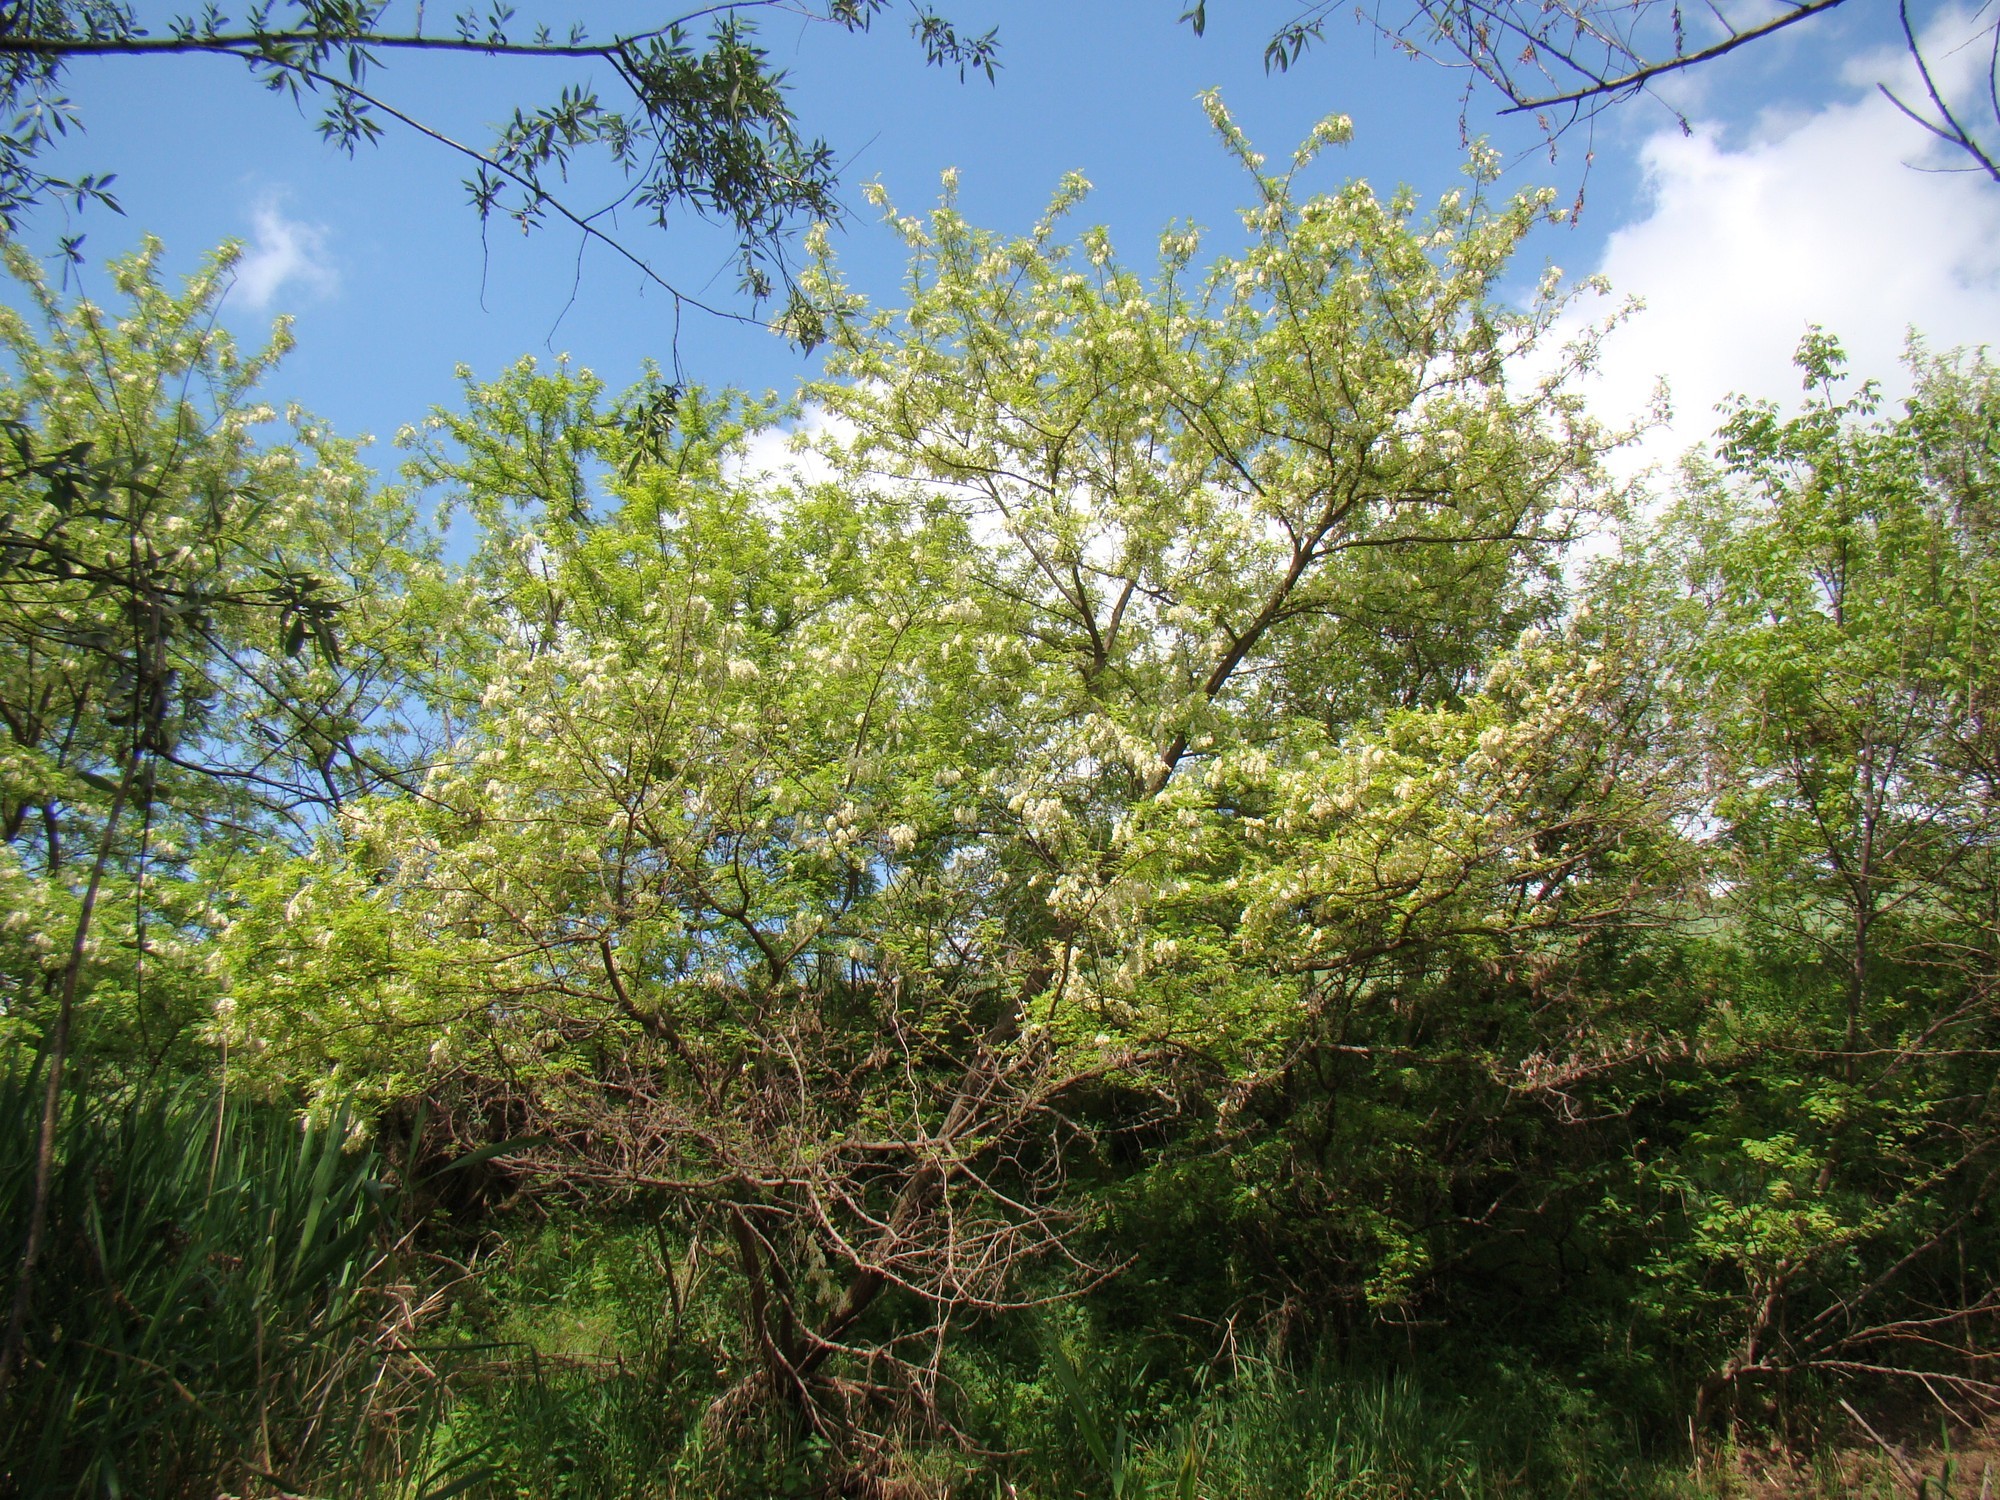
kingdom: Plantae
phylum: Tracheophyta
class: Magnoliopsida
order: Fabales
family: Fabaceae
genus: Robinia
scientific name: Robinia pseudoacacia
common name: Black locust
